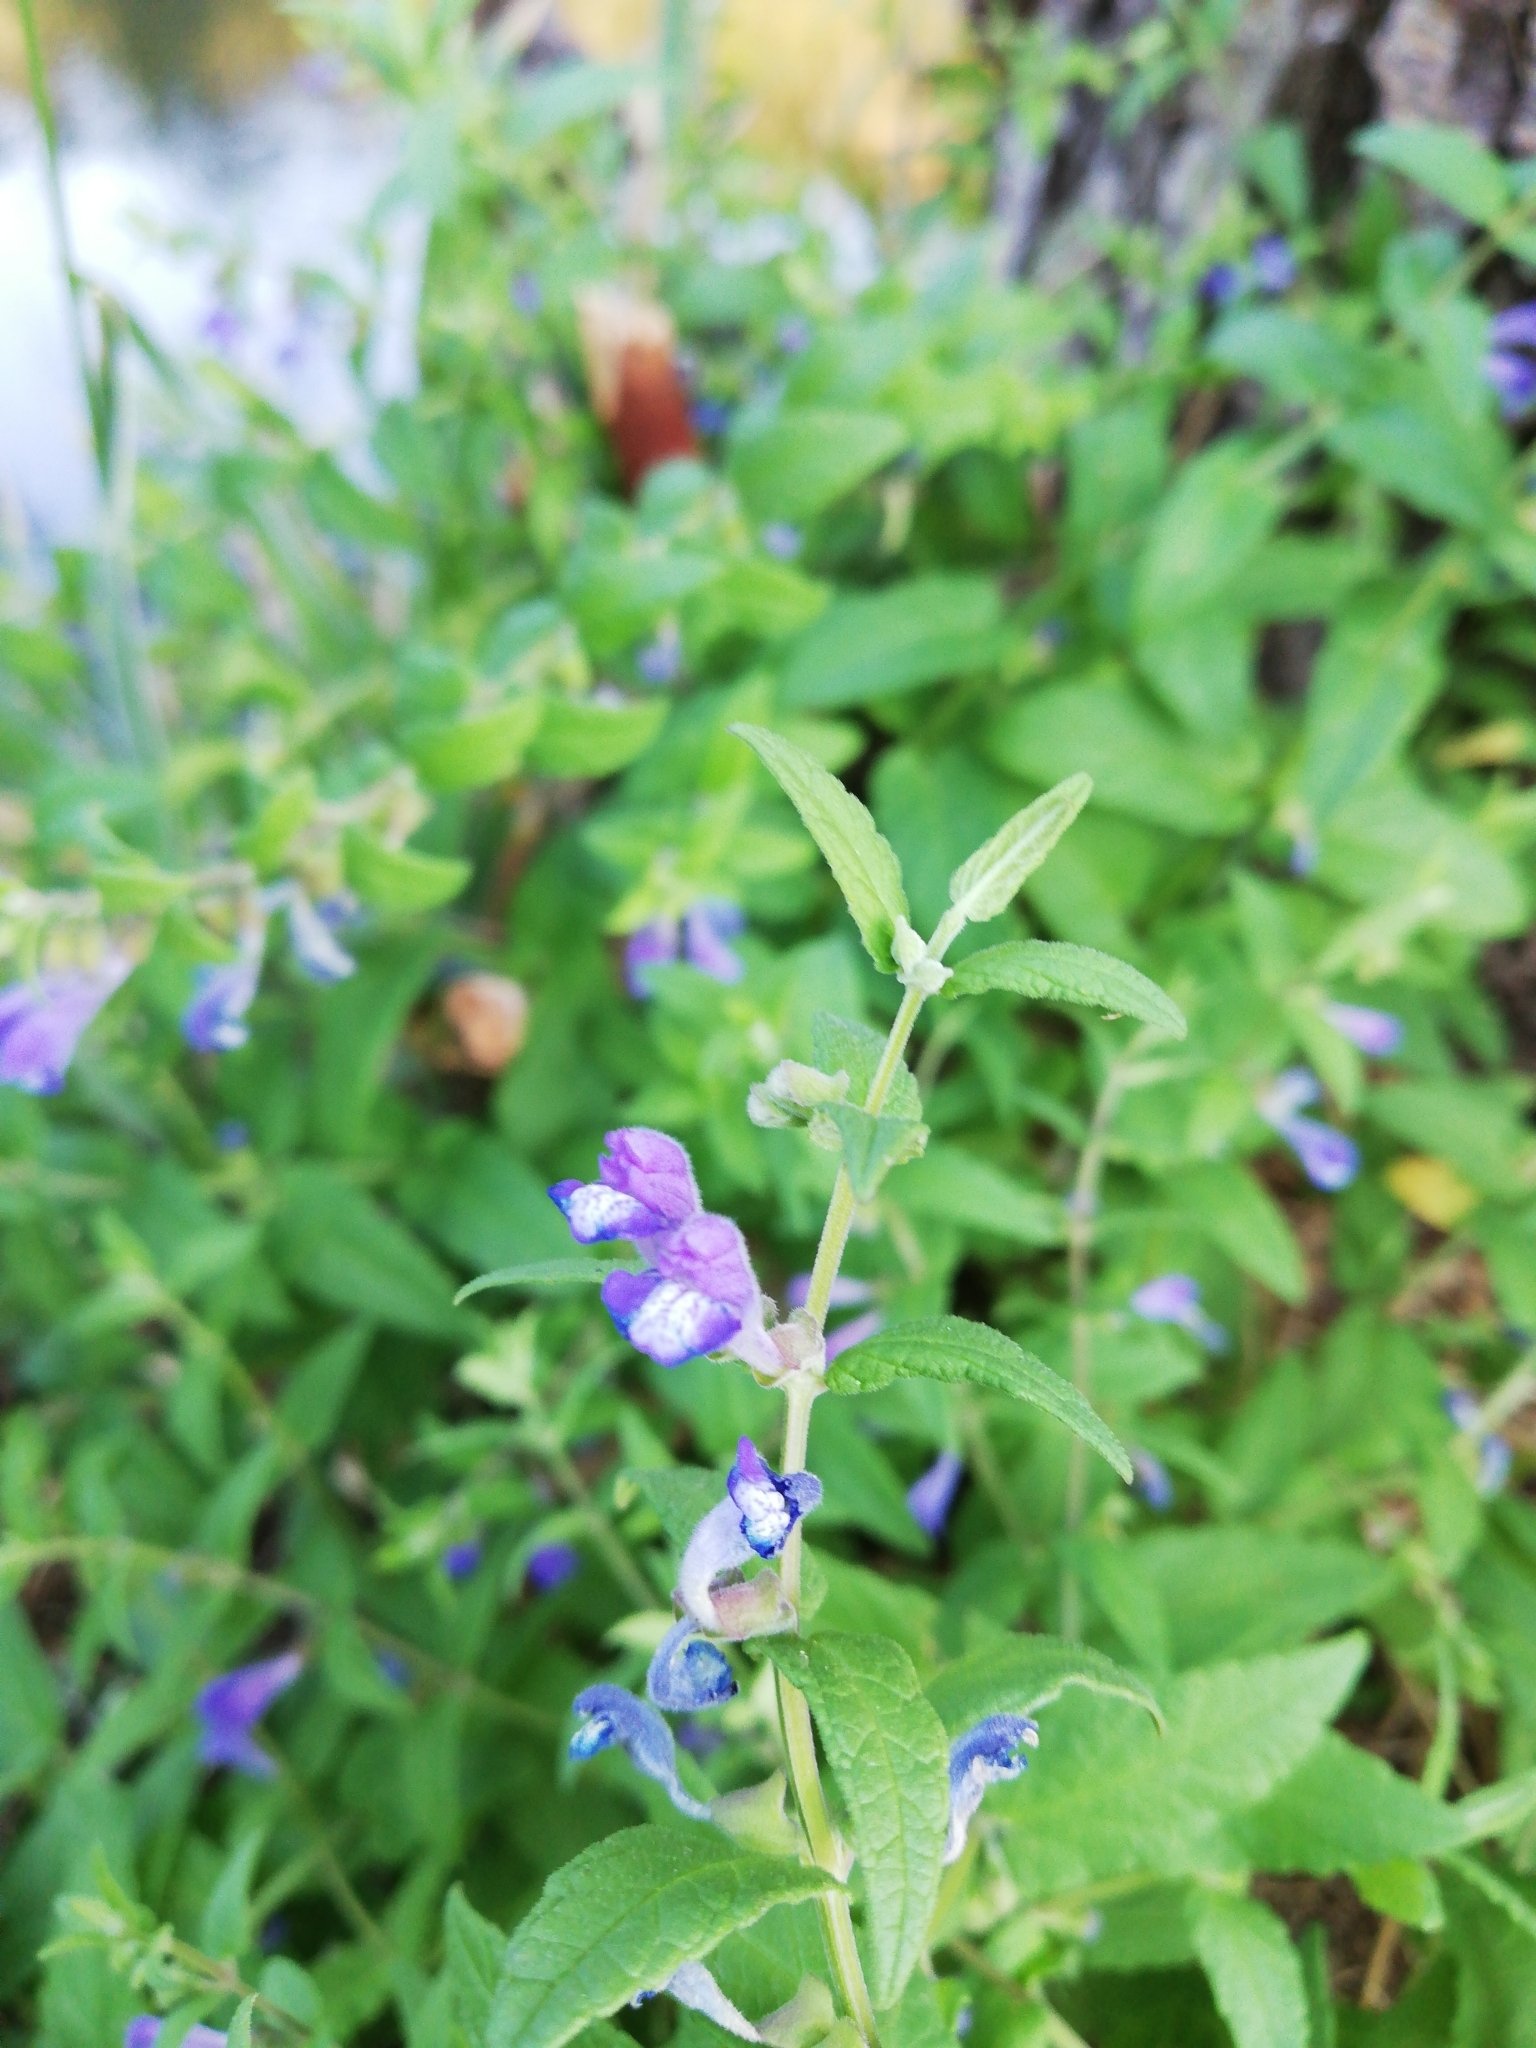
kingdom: Plantae
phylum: Tracheophyta
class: Magnoliopsida
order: Lamiales
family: Lamiaceae
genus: Scutellaria
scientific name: Scutellaria galericulata
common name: Skullcap
